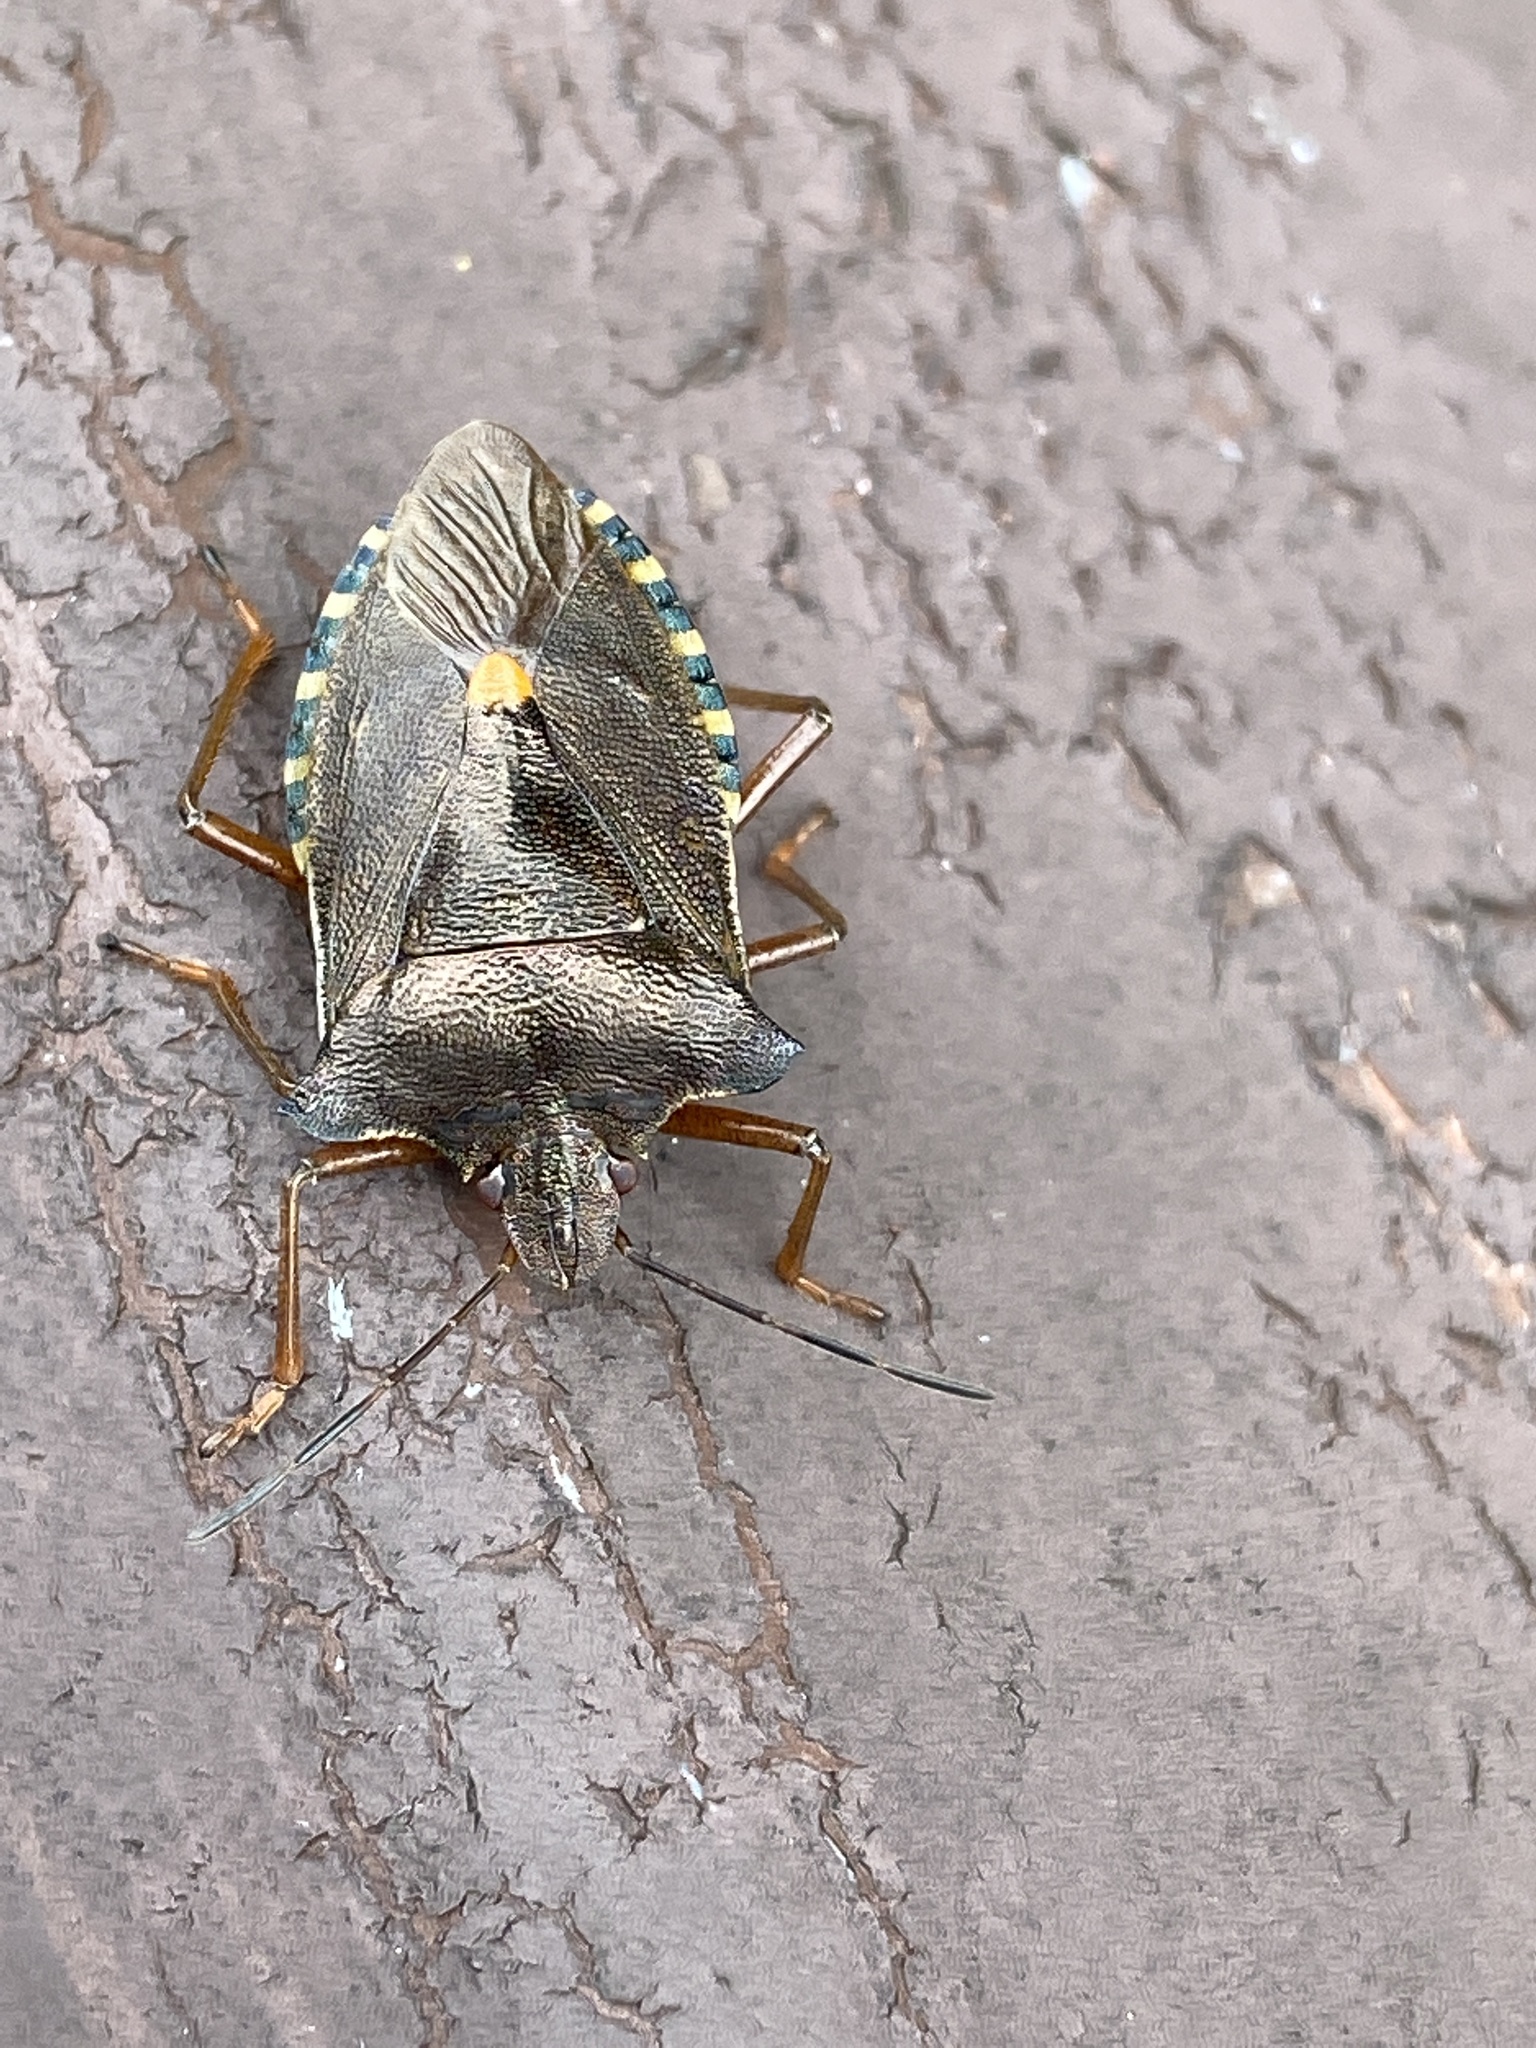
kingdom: Animalia
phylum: Arthropoda
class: Insecta
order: Hemiptera
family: Pentatomidae
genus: Pentatoma
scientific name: Pentatoma rufipes
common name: Forest bug
